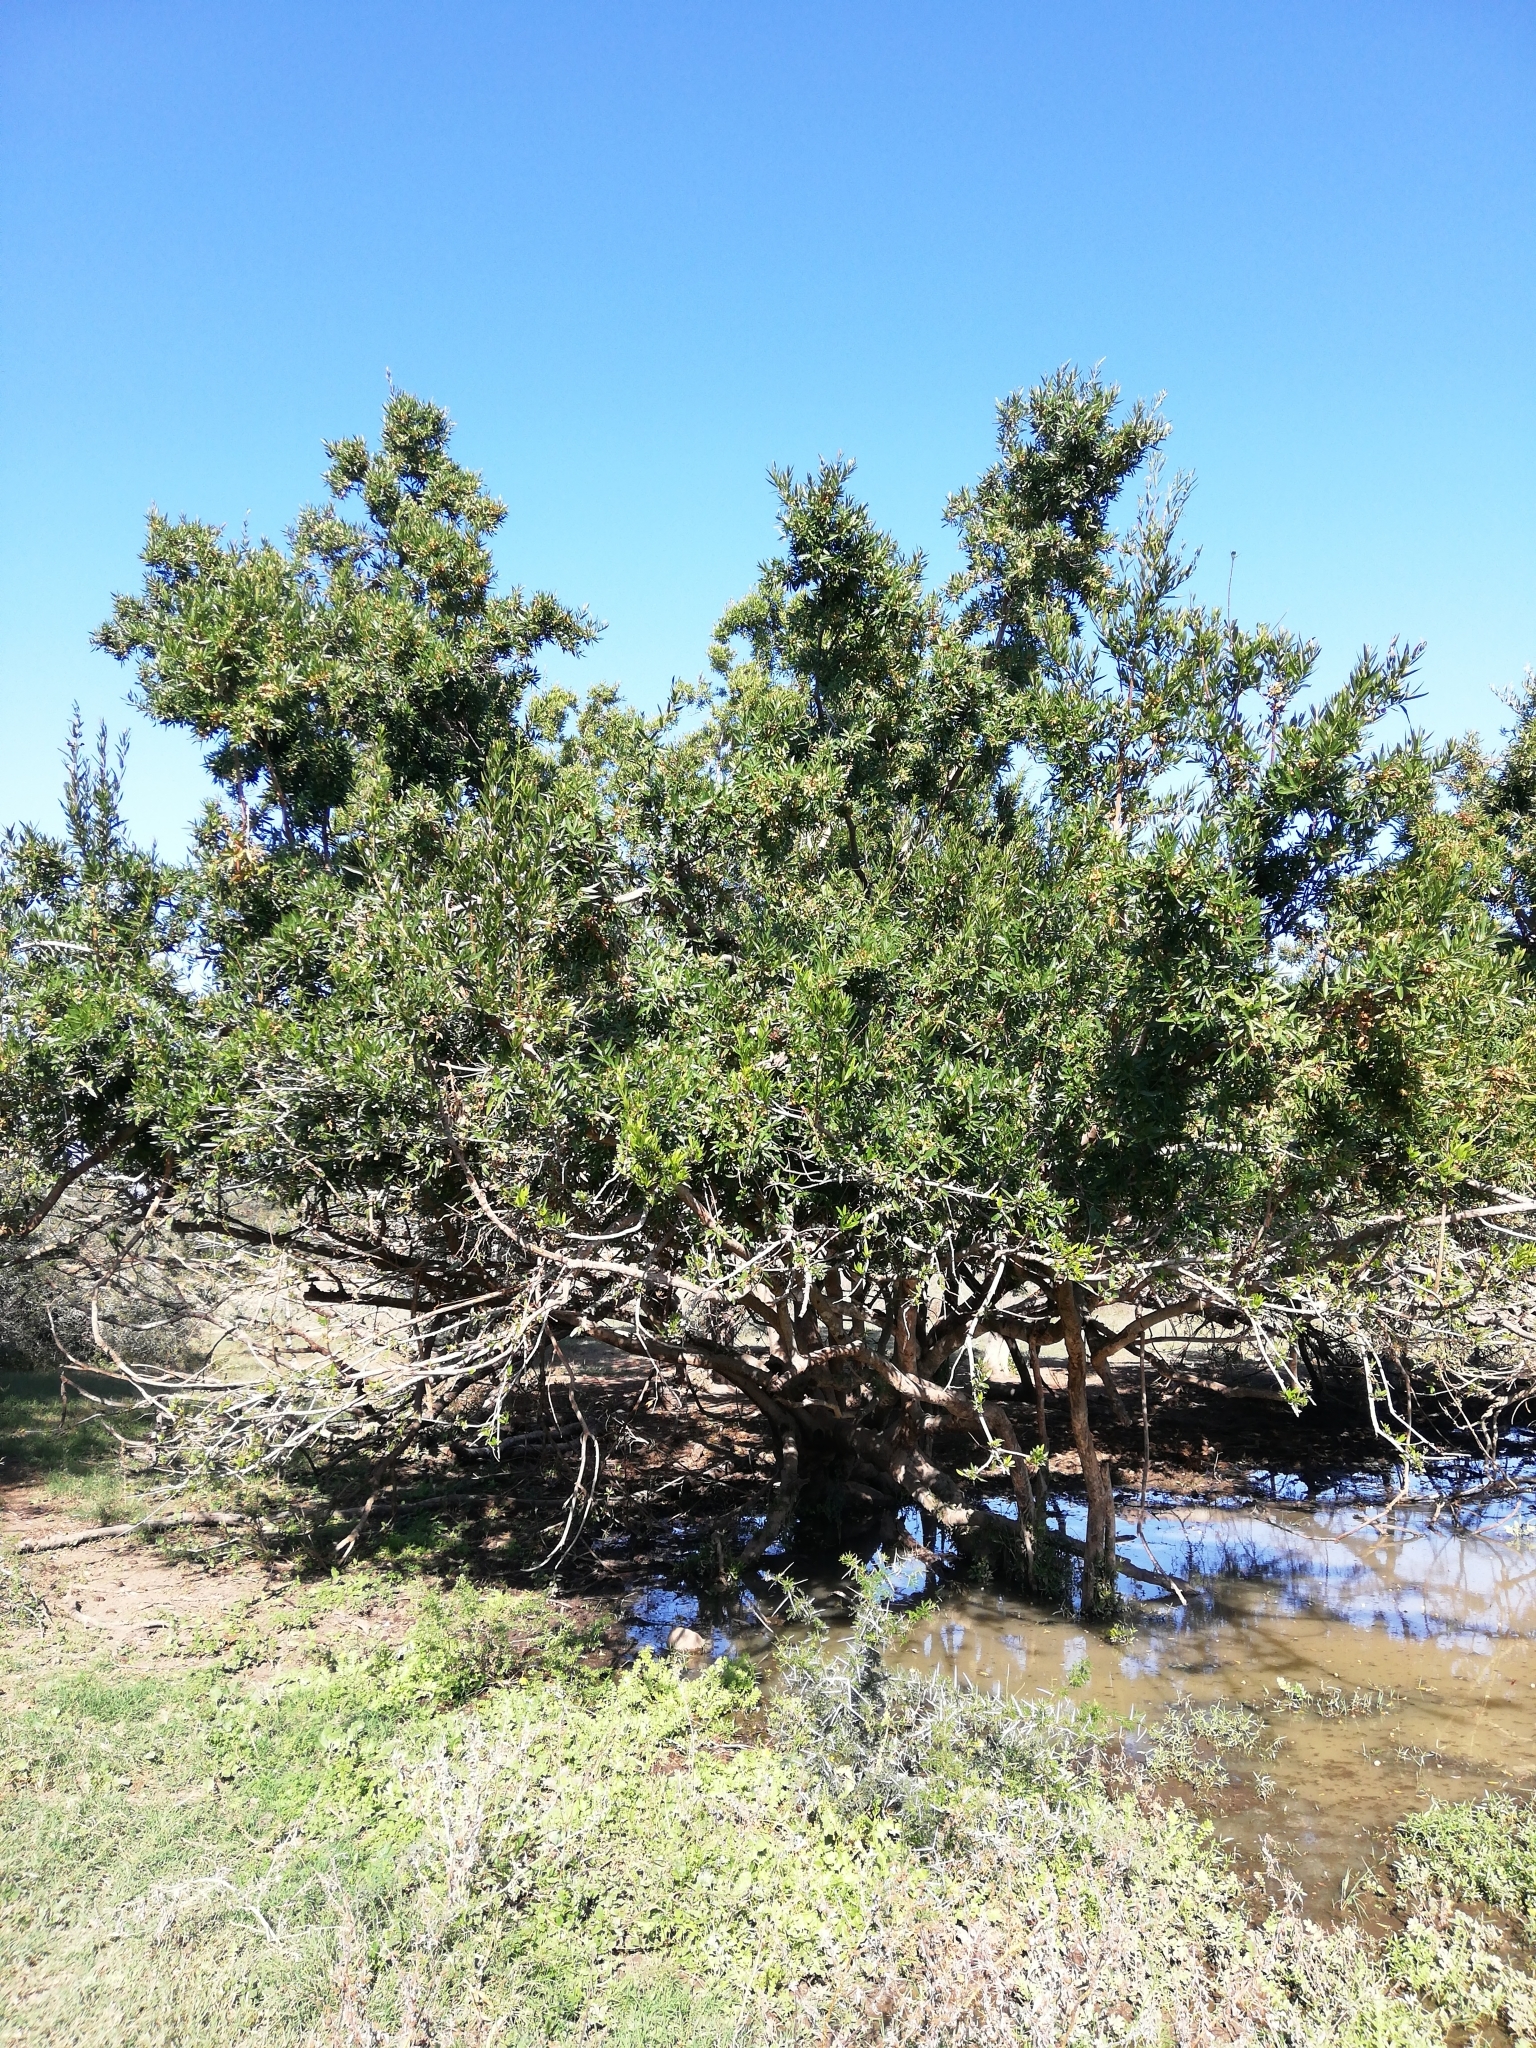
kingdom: Plantae
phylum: Tracheophyta
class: Magnoliopsida
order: Myrtales
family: Combretaceae
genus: Combretum
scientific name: Combretum caffrum
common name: Cape bushwillow
